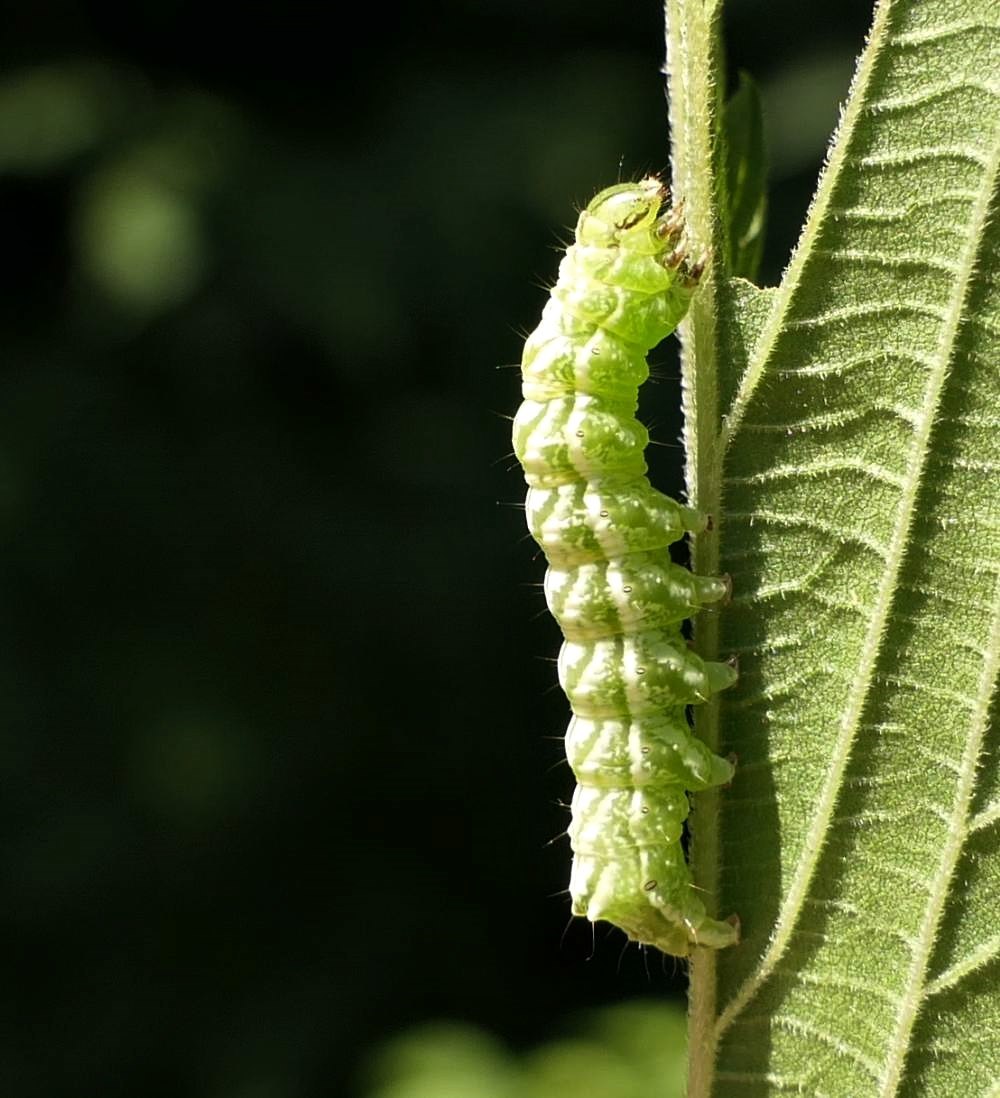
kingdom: Animalia
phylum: Arthropoda
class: Insecta
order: Lepidoptera
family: Noctuidae
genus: Abrostola
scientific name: Abrostola urentis
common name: Spectacled nettle moth
